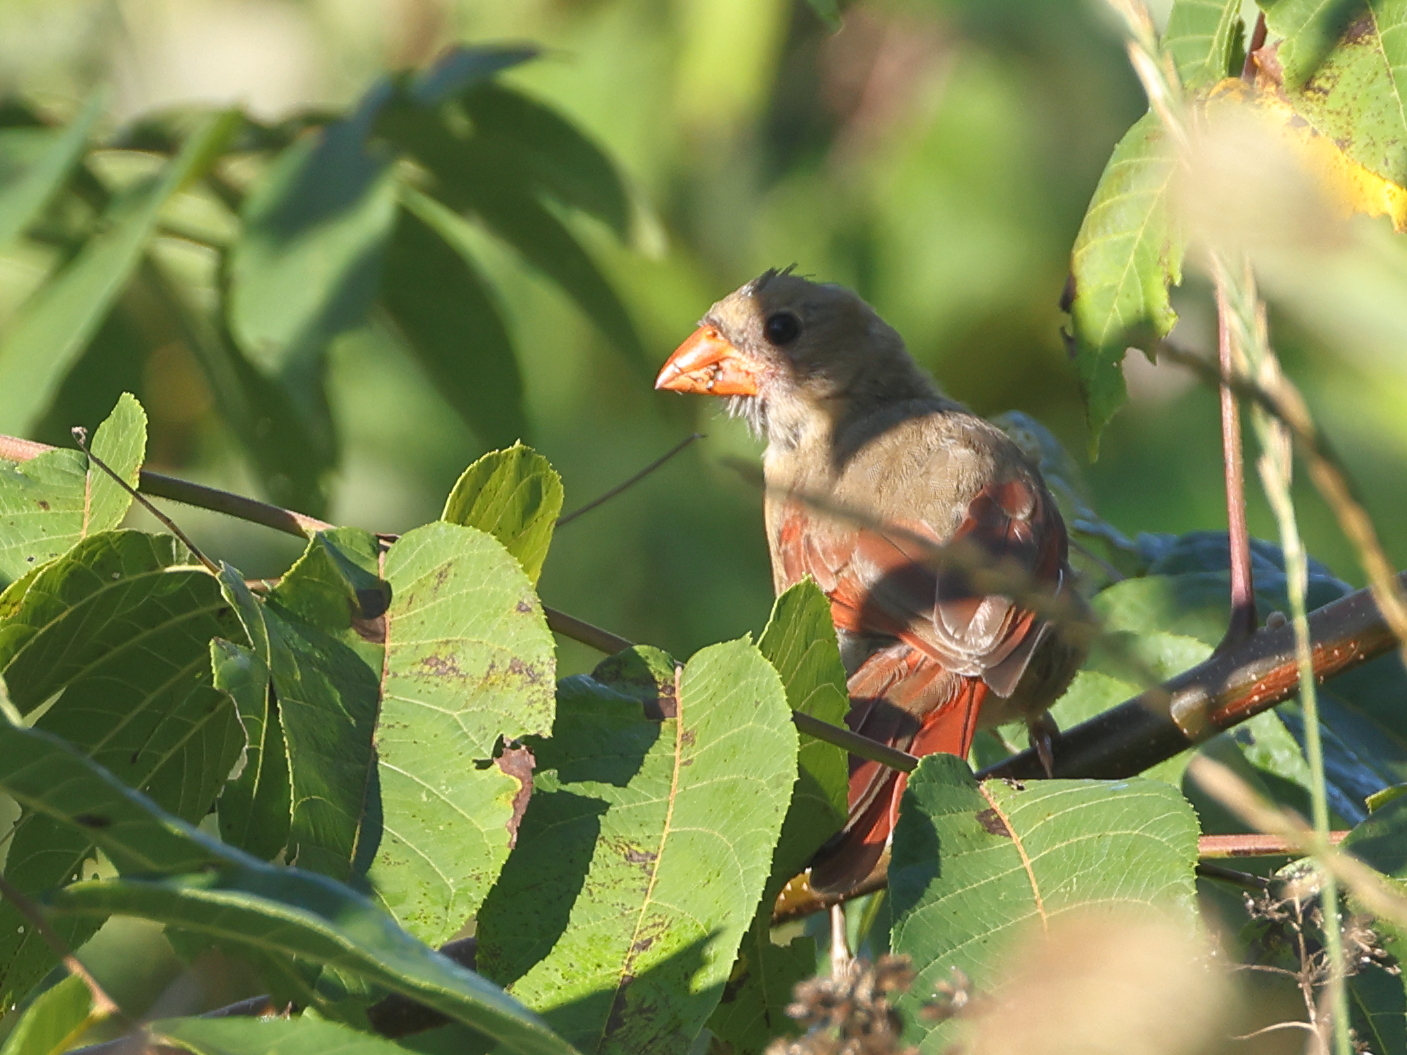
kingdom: Animalia
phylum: Chordata
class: Aves
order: Passeriformes
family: Cardinalidae
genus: Cardinalis
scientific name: Cardinalis cardinalis
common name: Northern cardinal
